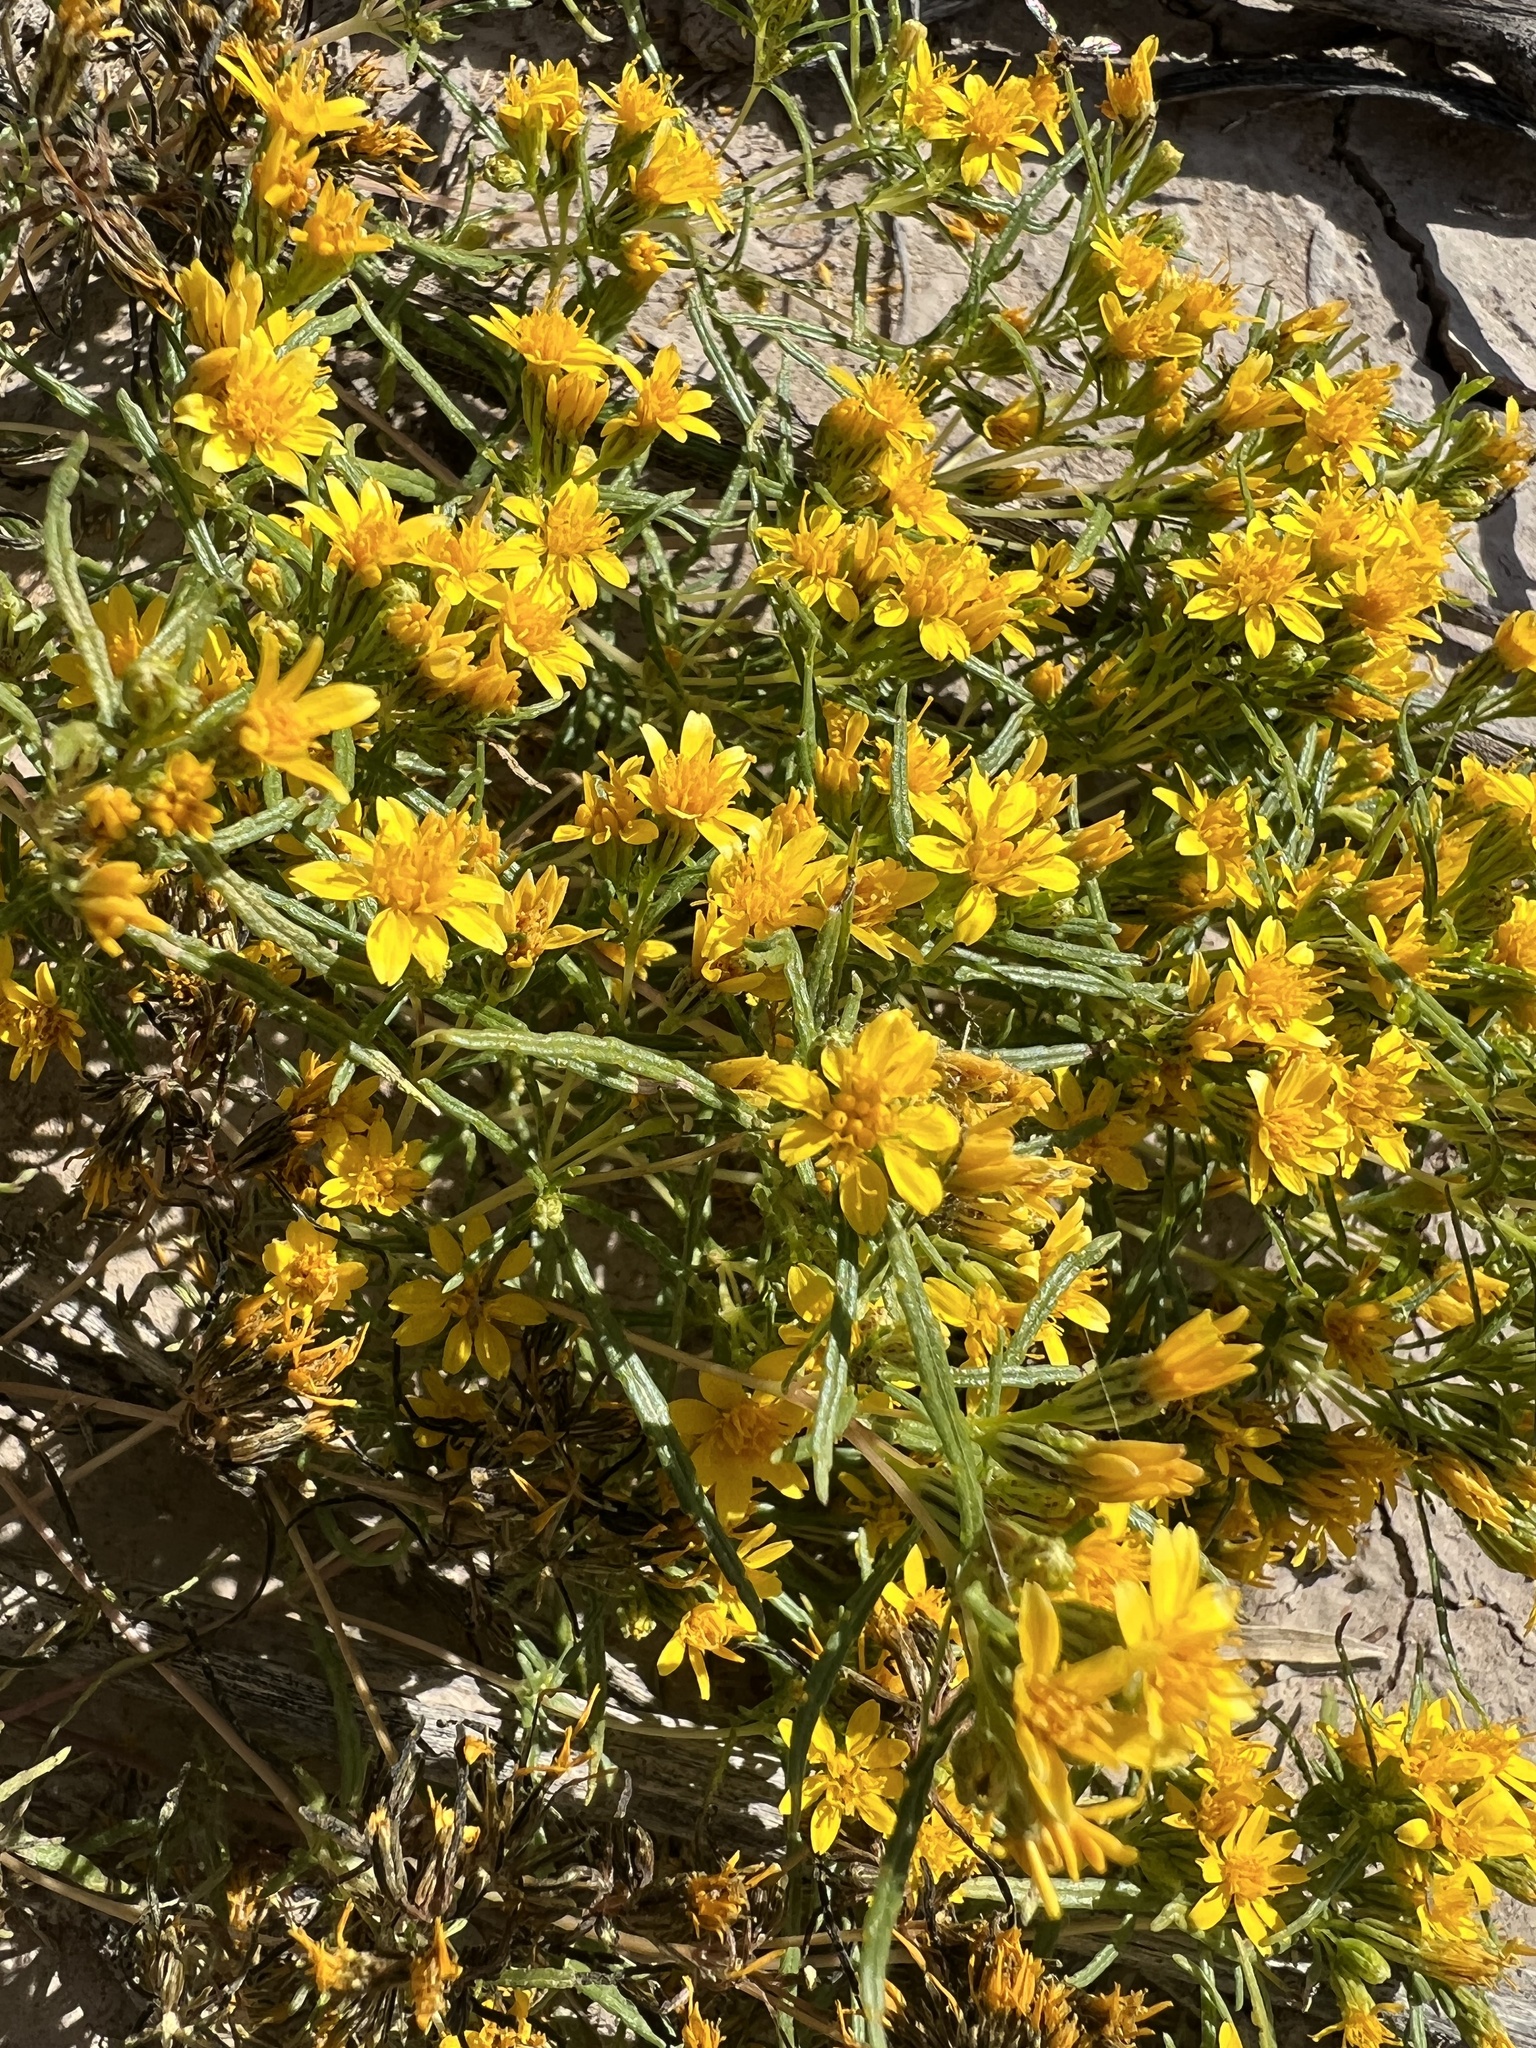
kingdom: Plantae
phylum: Tracheophyta
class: Magnoliopsida
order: Asterales
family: Asteraceae
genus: Pectis
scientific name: Pectis papposa
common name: Many-bristle chinchweed
